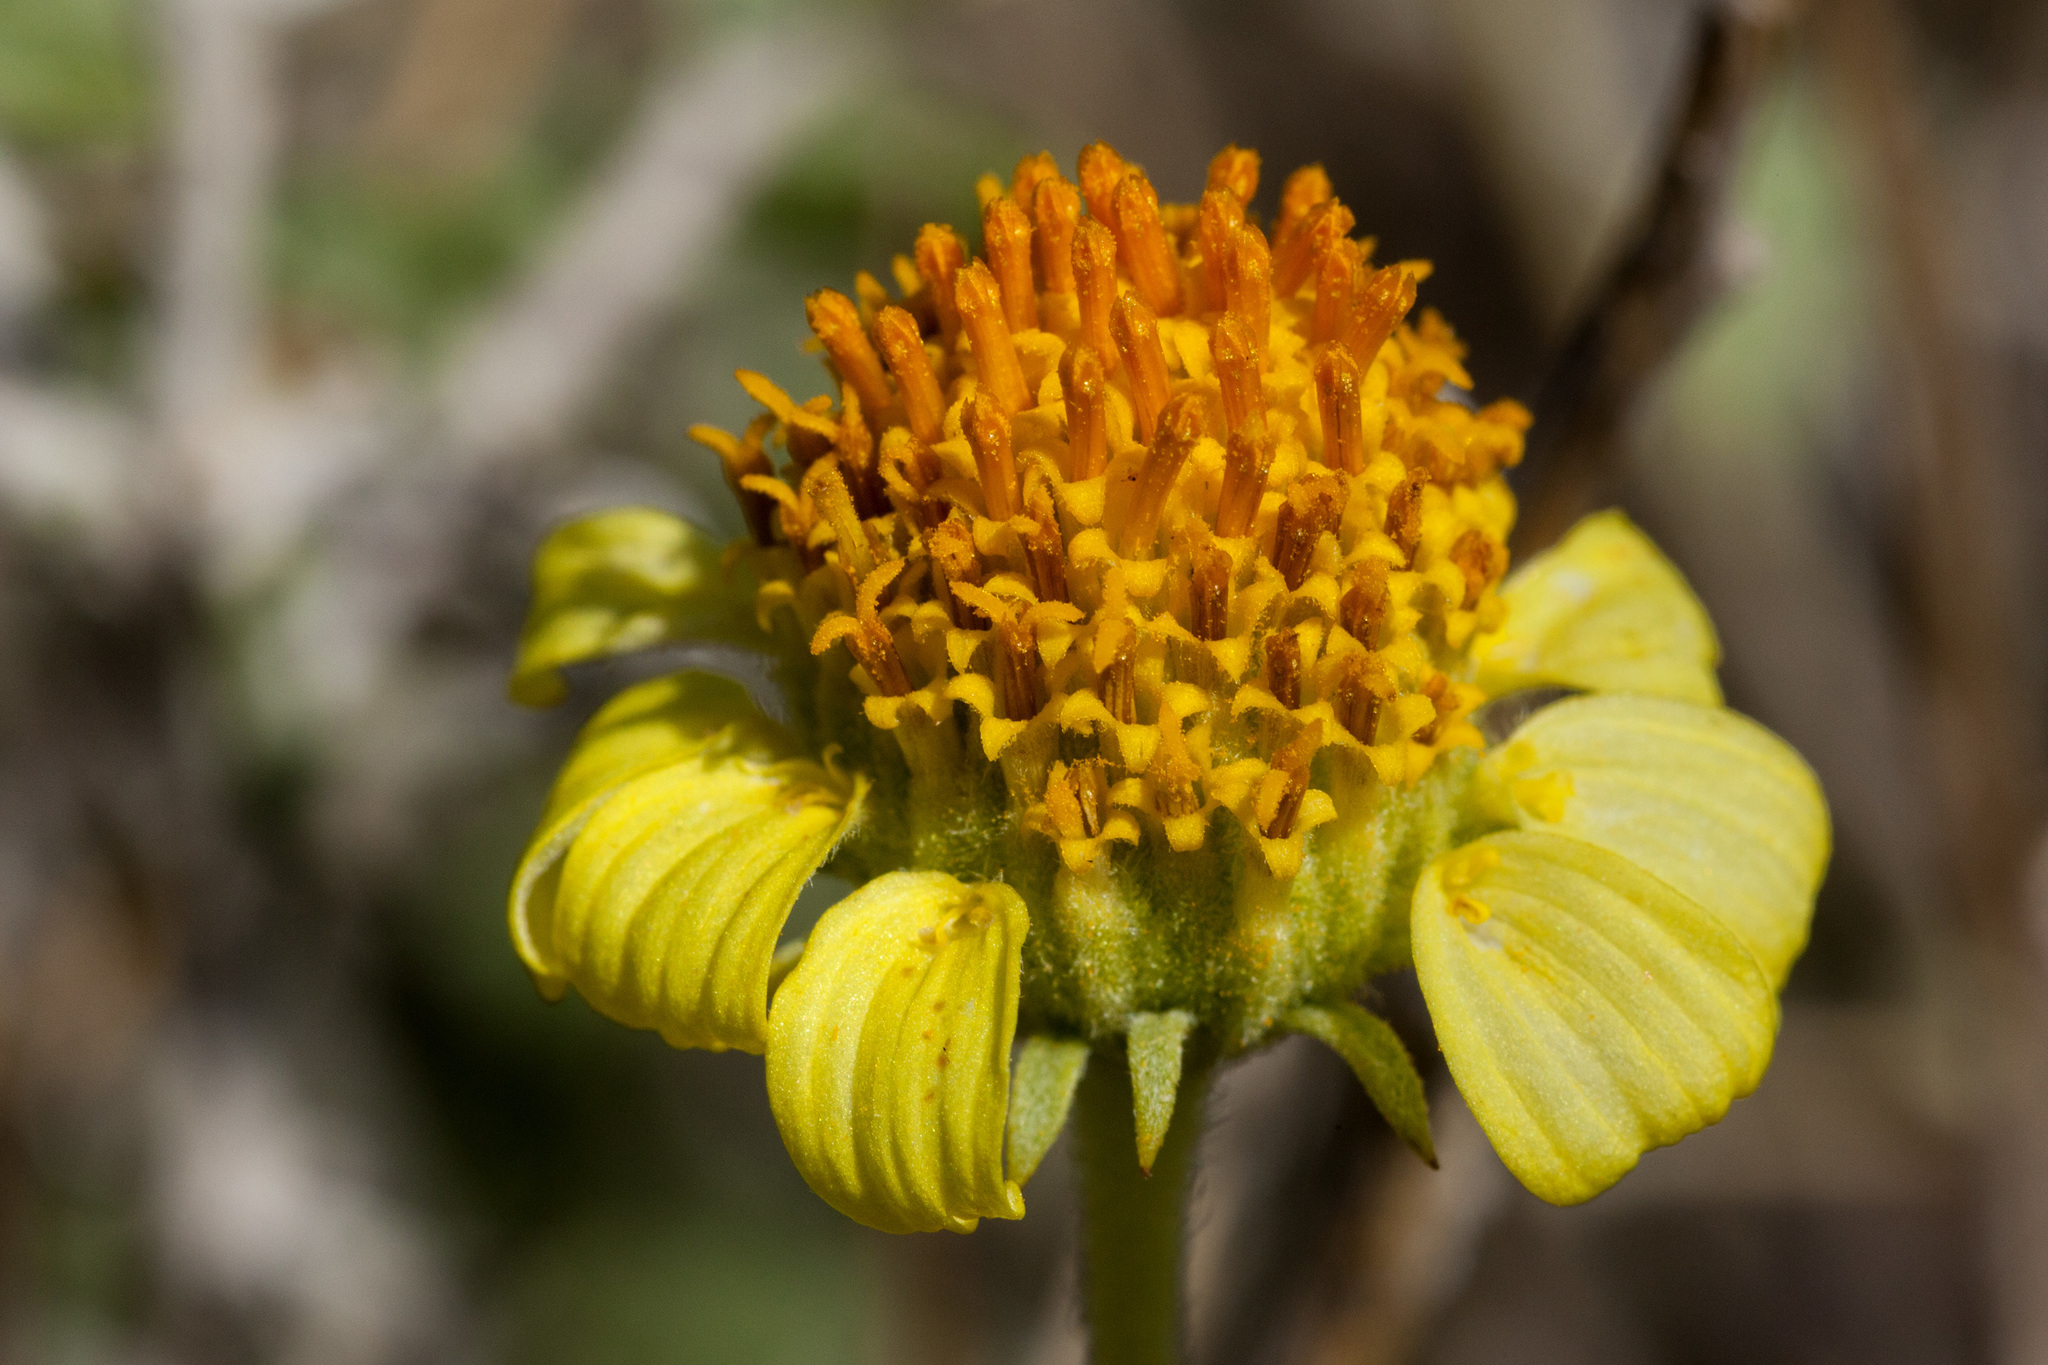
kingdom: Plantae
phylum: Tracheophyta
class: Magnoliopsida
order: Asterales
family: Asteraceae
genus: Encelia
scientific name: Encelia virginensis
